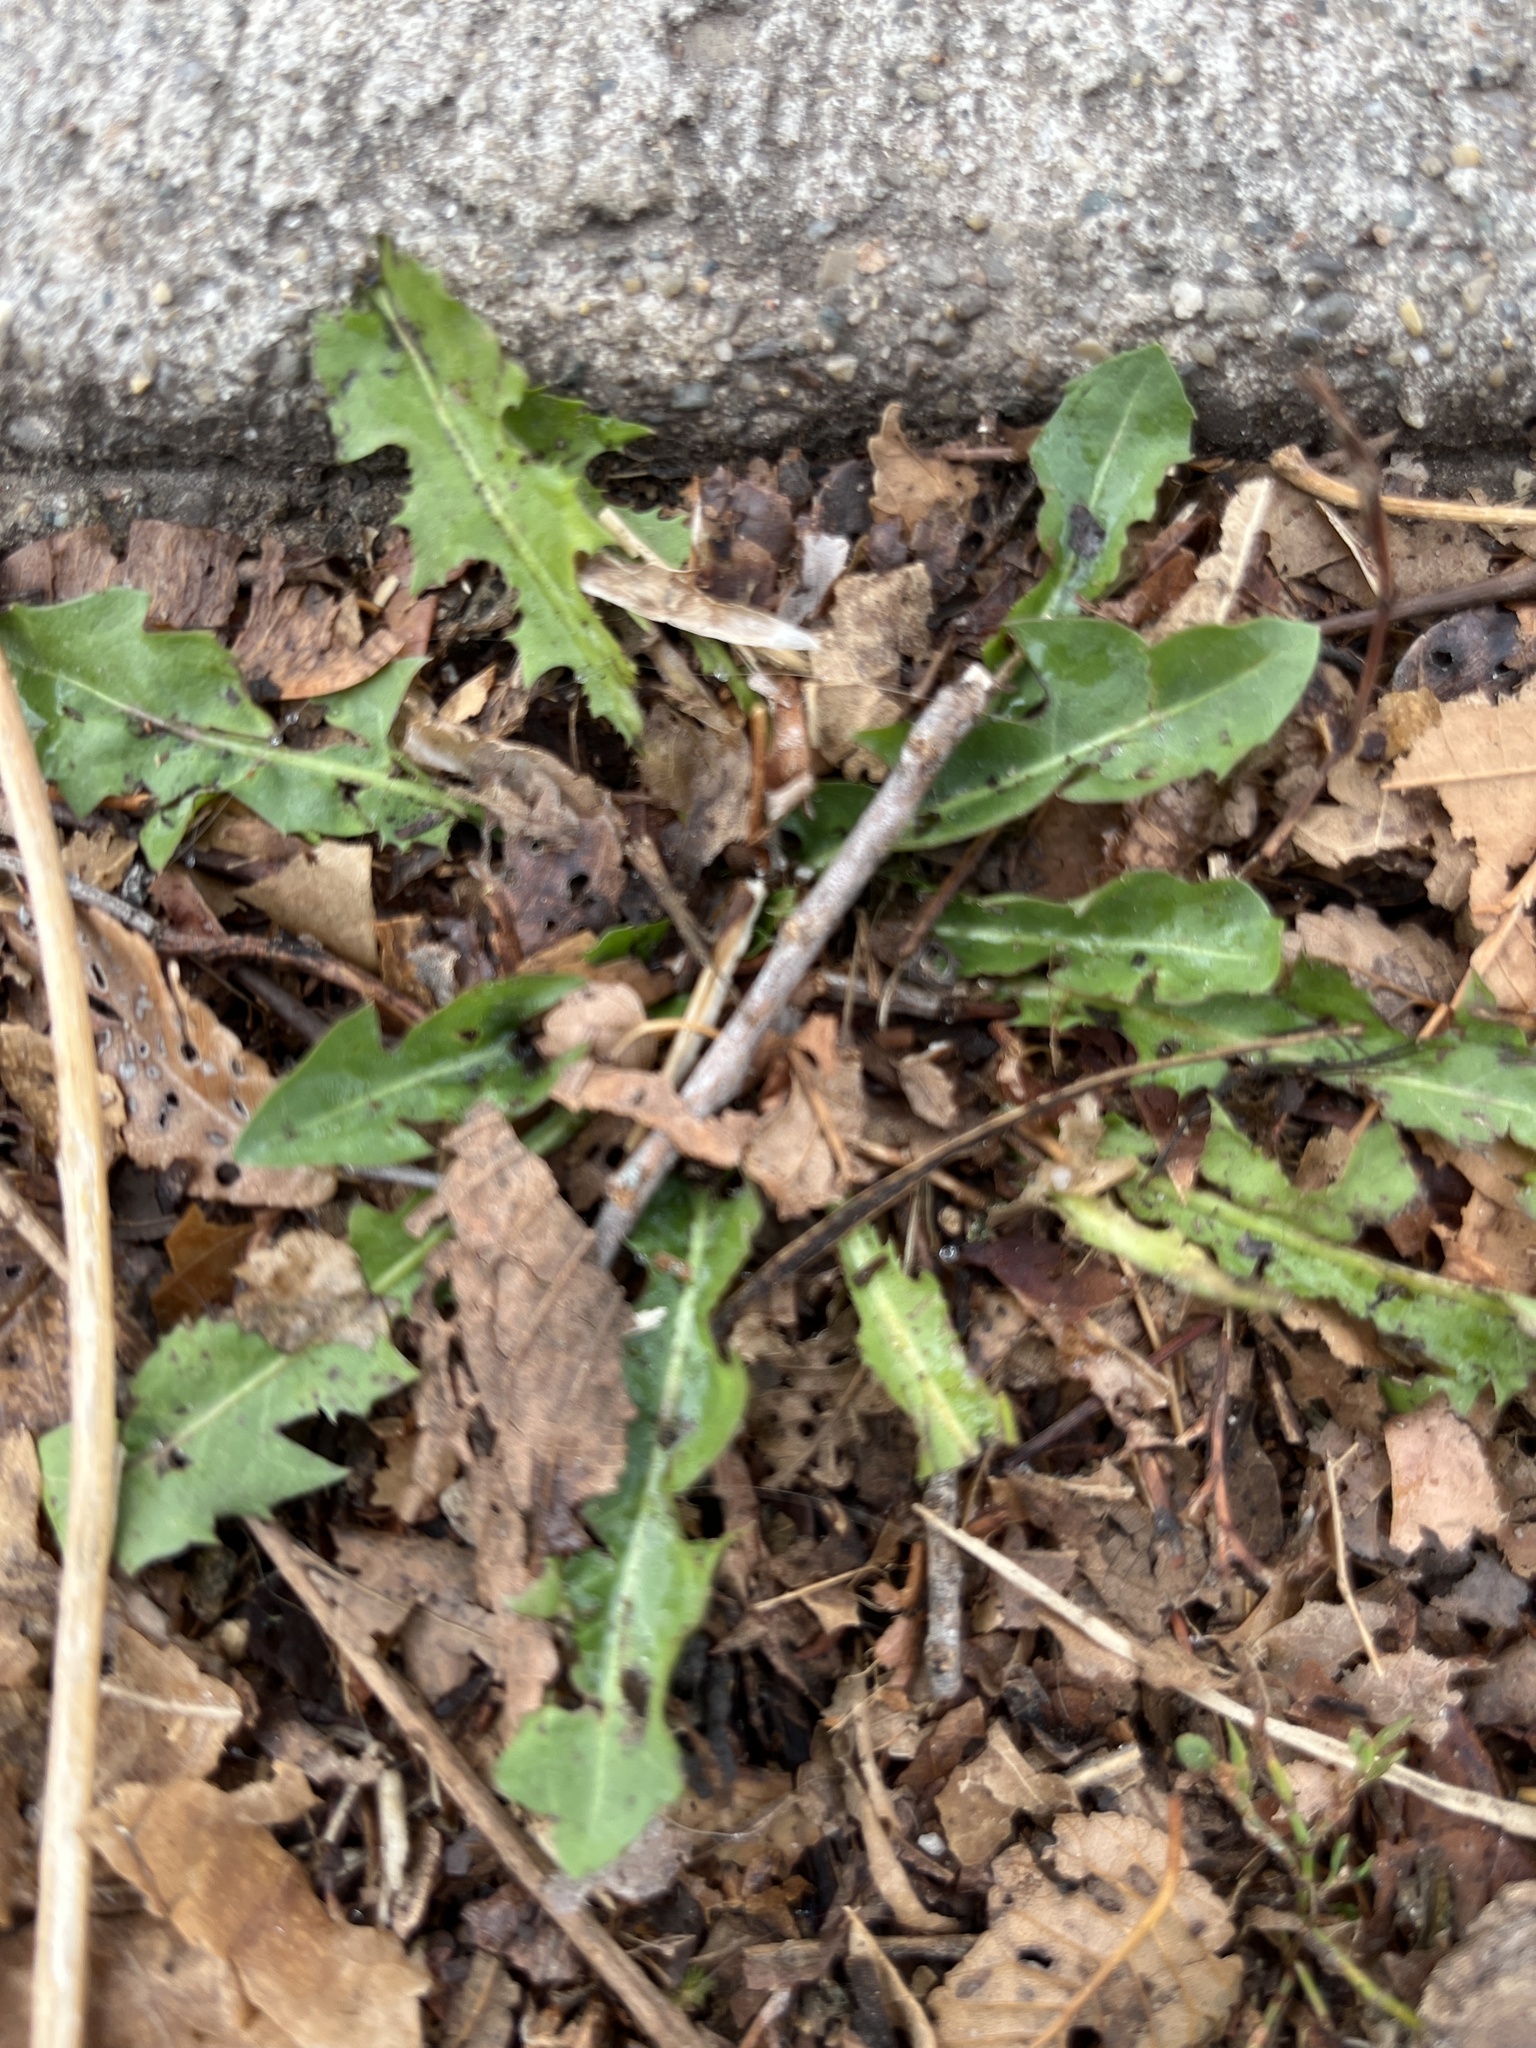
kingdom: Plantae
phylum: Tracheophyta
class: Magnoliopsida
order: Asterales
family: Asteraceae
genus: Taraxacum
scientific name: Taraxacum
